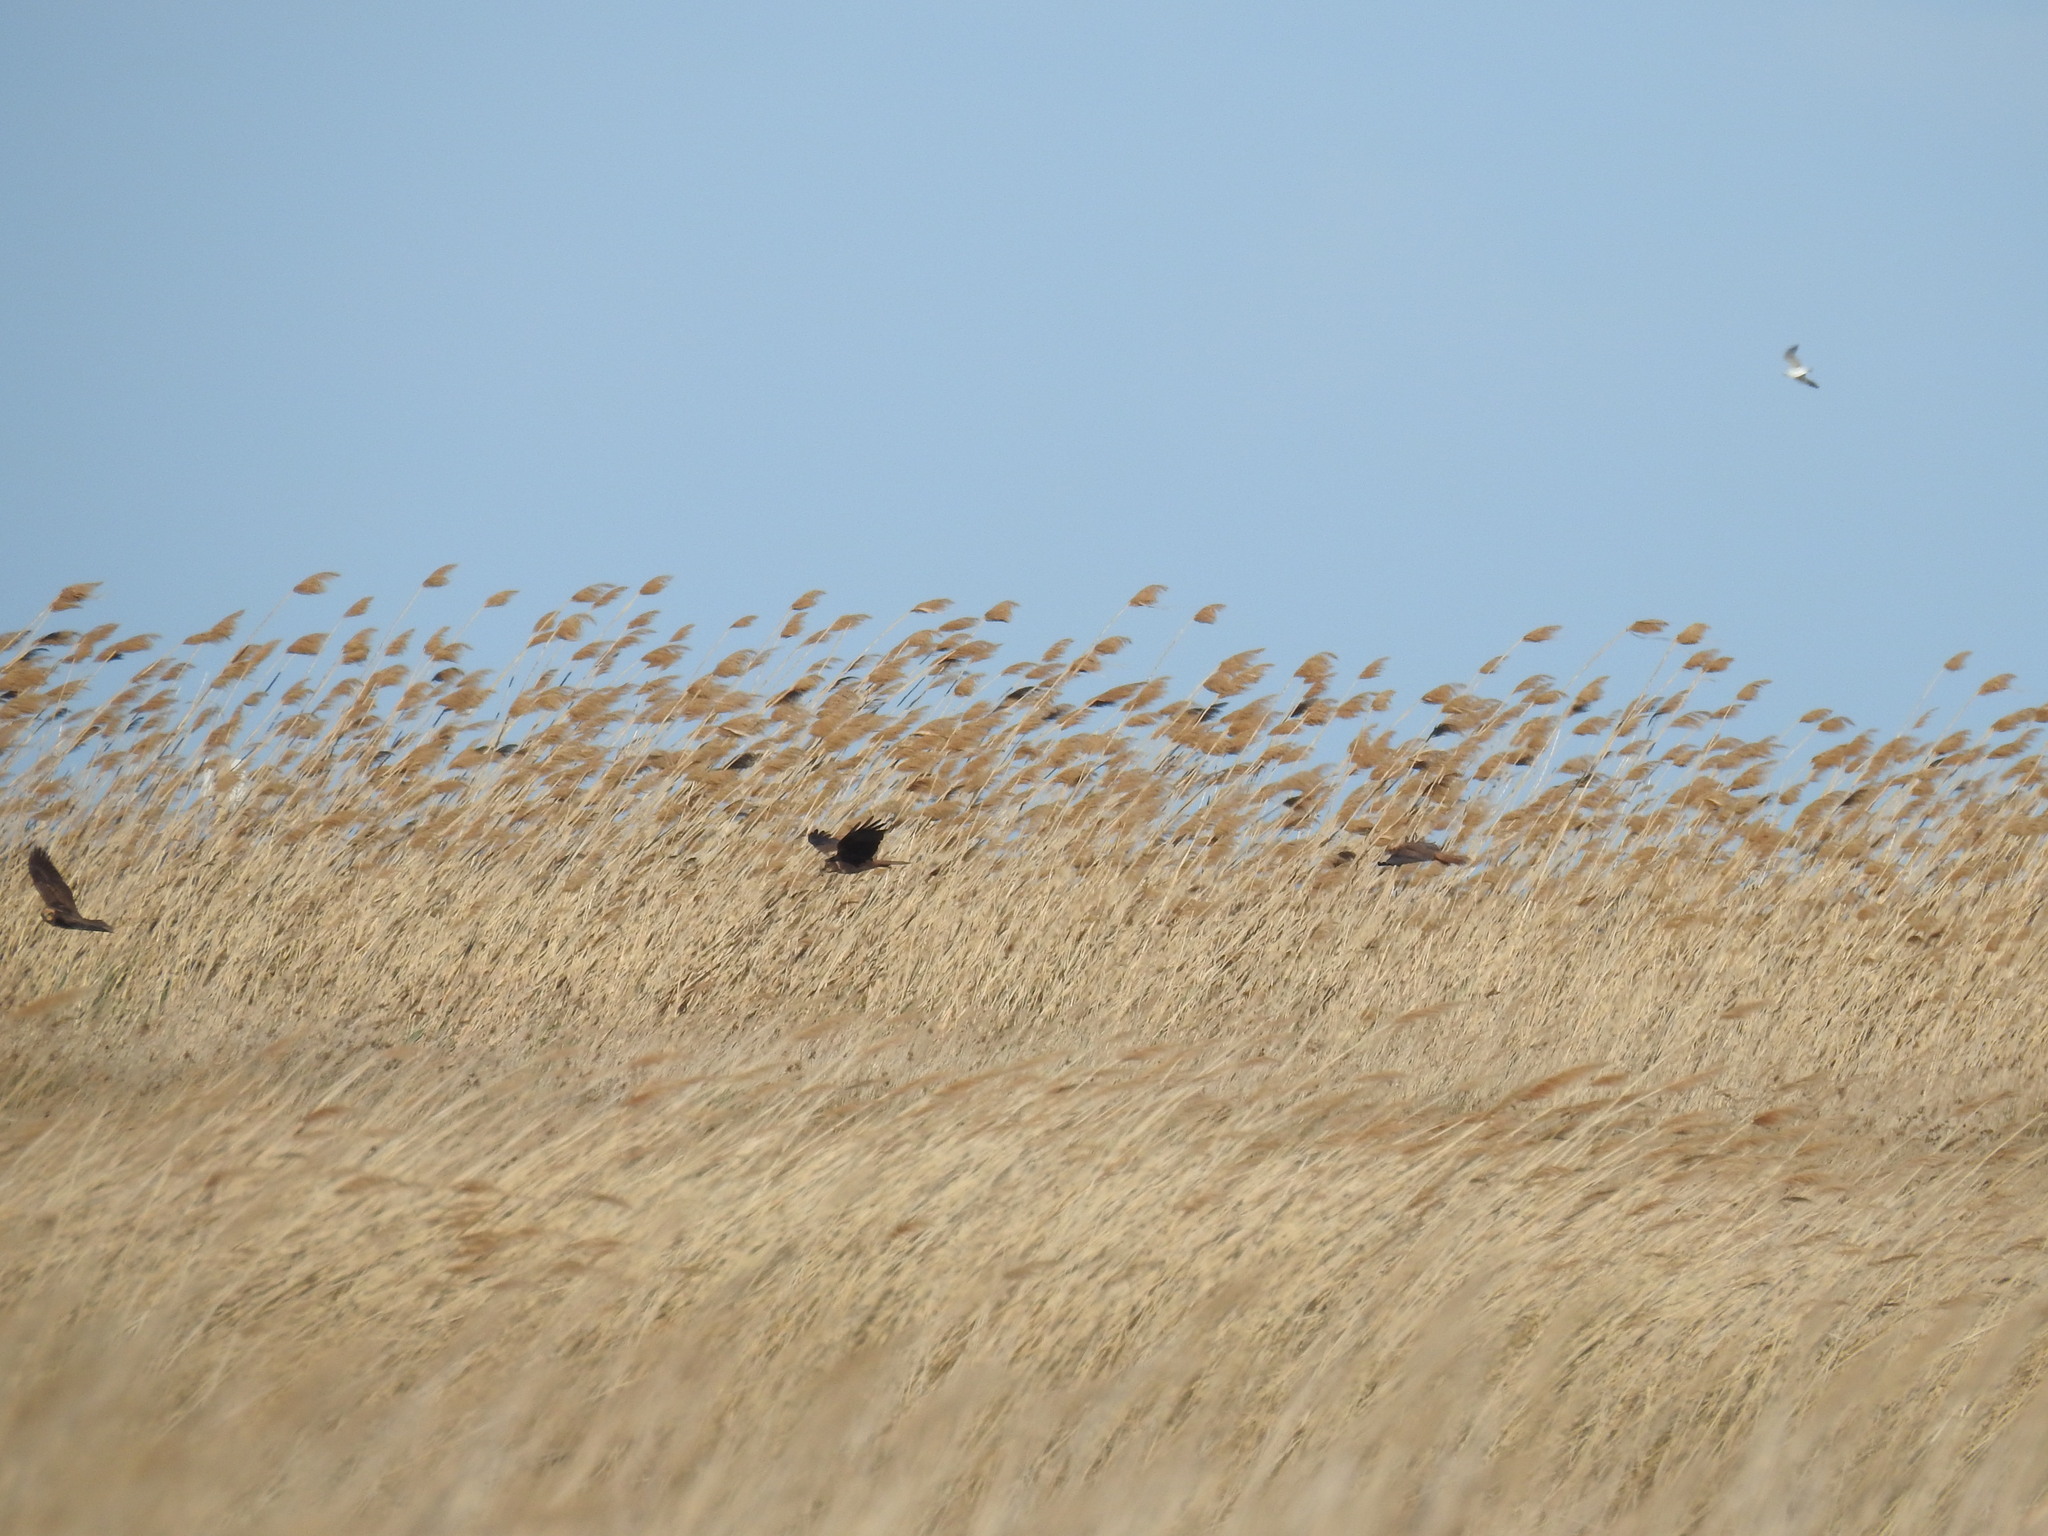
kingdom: Animalia
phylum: Chordata
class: Aves
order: Accipitriformes
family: Accipitridae
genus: Circus
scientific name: Circus aeruginosus
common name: Western marsh harrier
